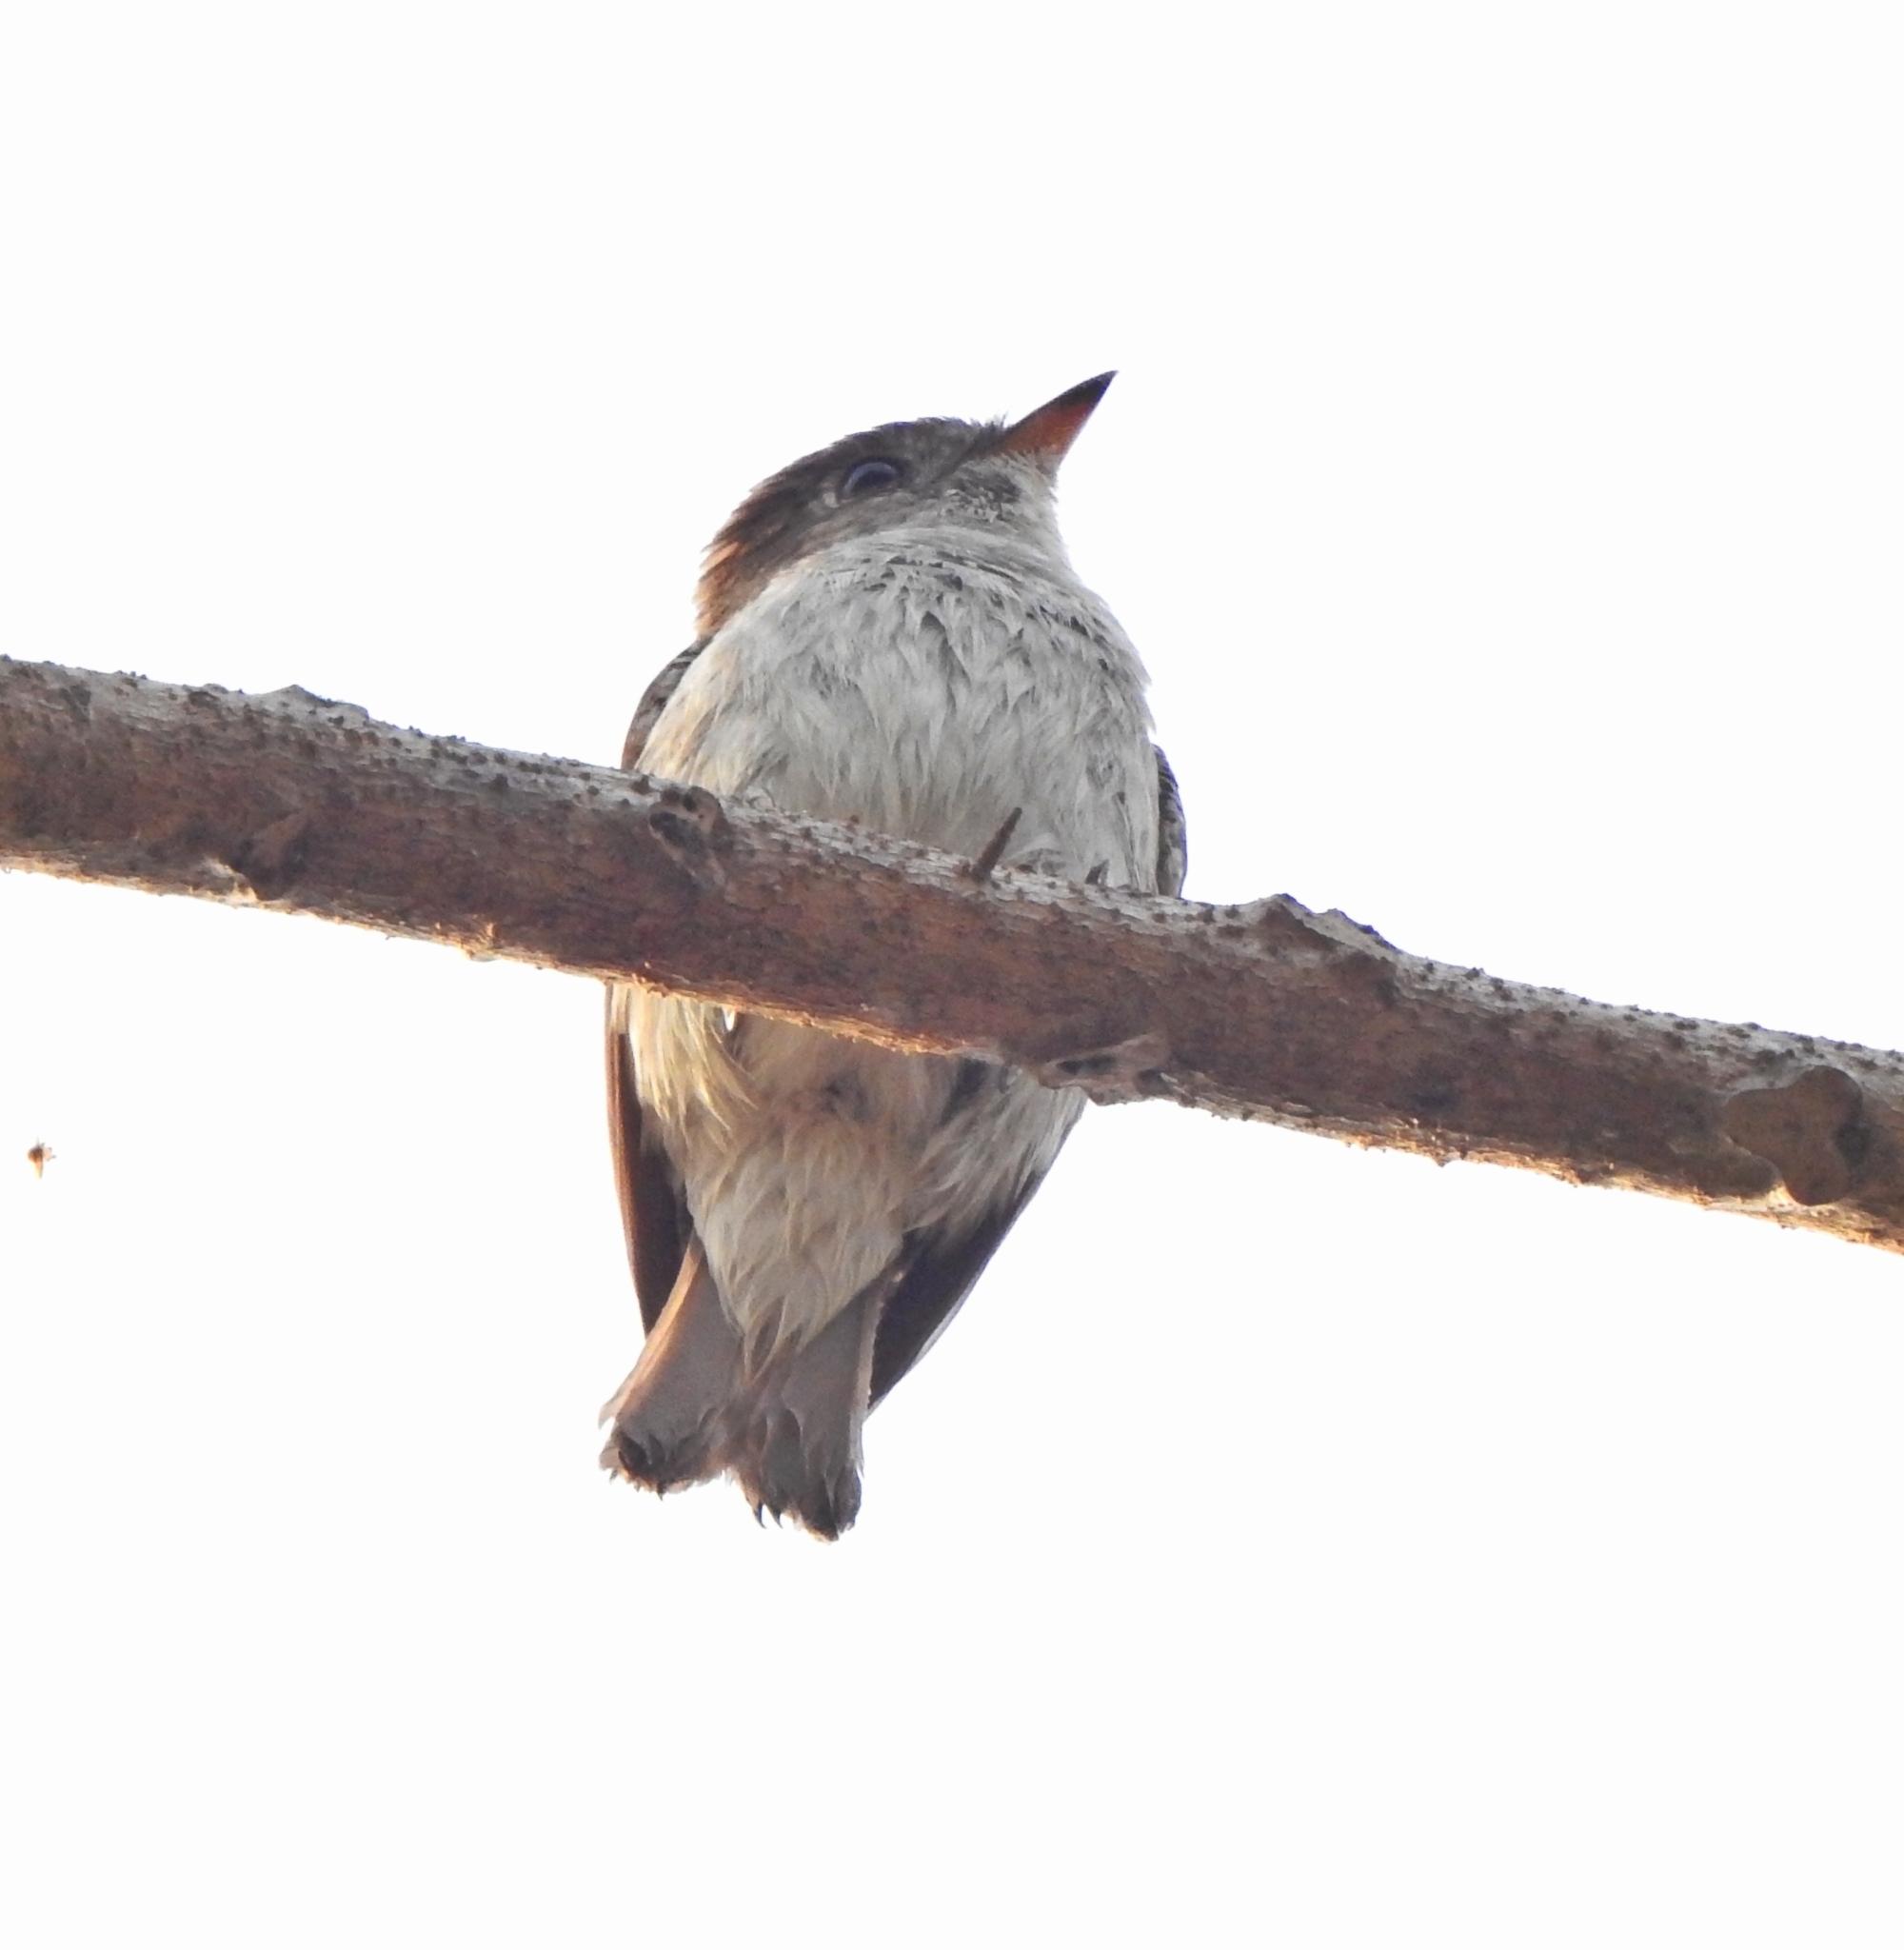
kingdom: Animalia
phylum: Chordata
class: Aves
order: Passeriformes
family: Muscicapidae
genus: Muscicapa
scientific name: Muscicapa latirostris
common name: Asian brown flycatcher
